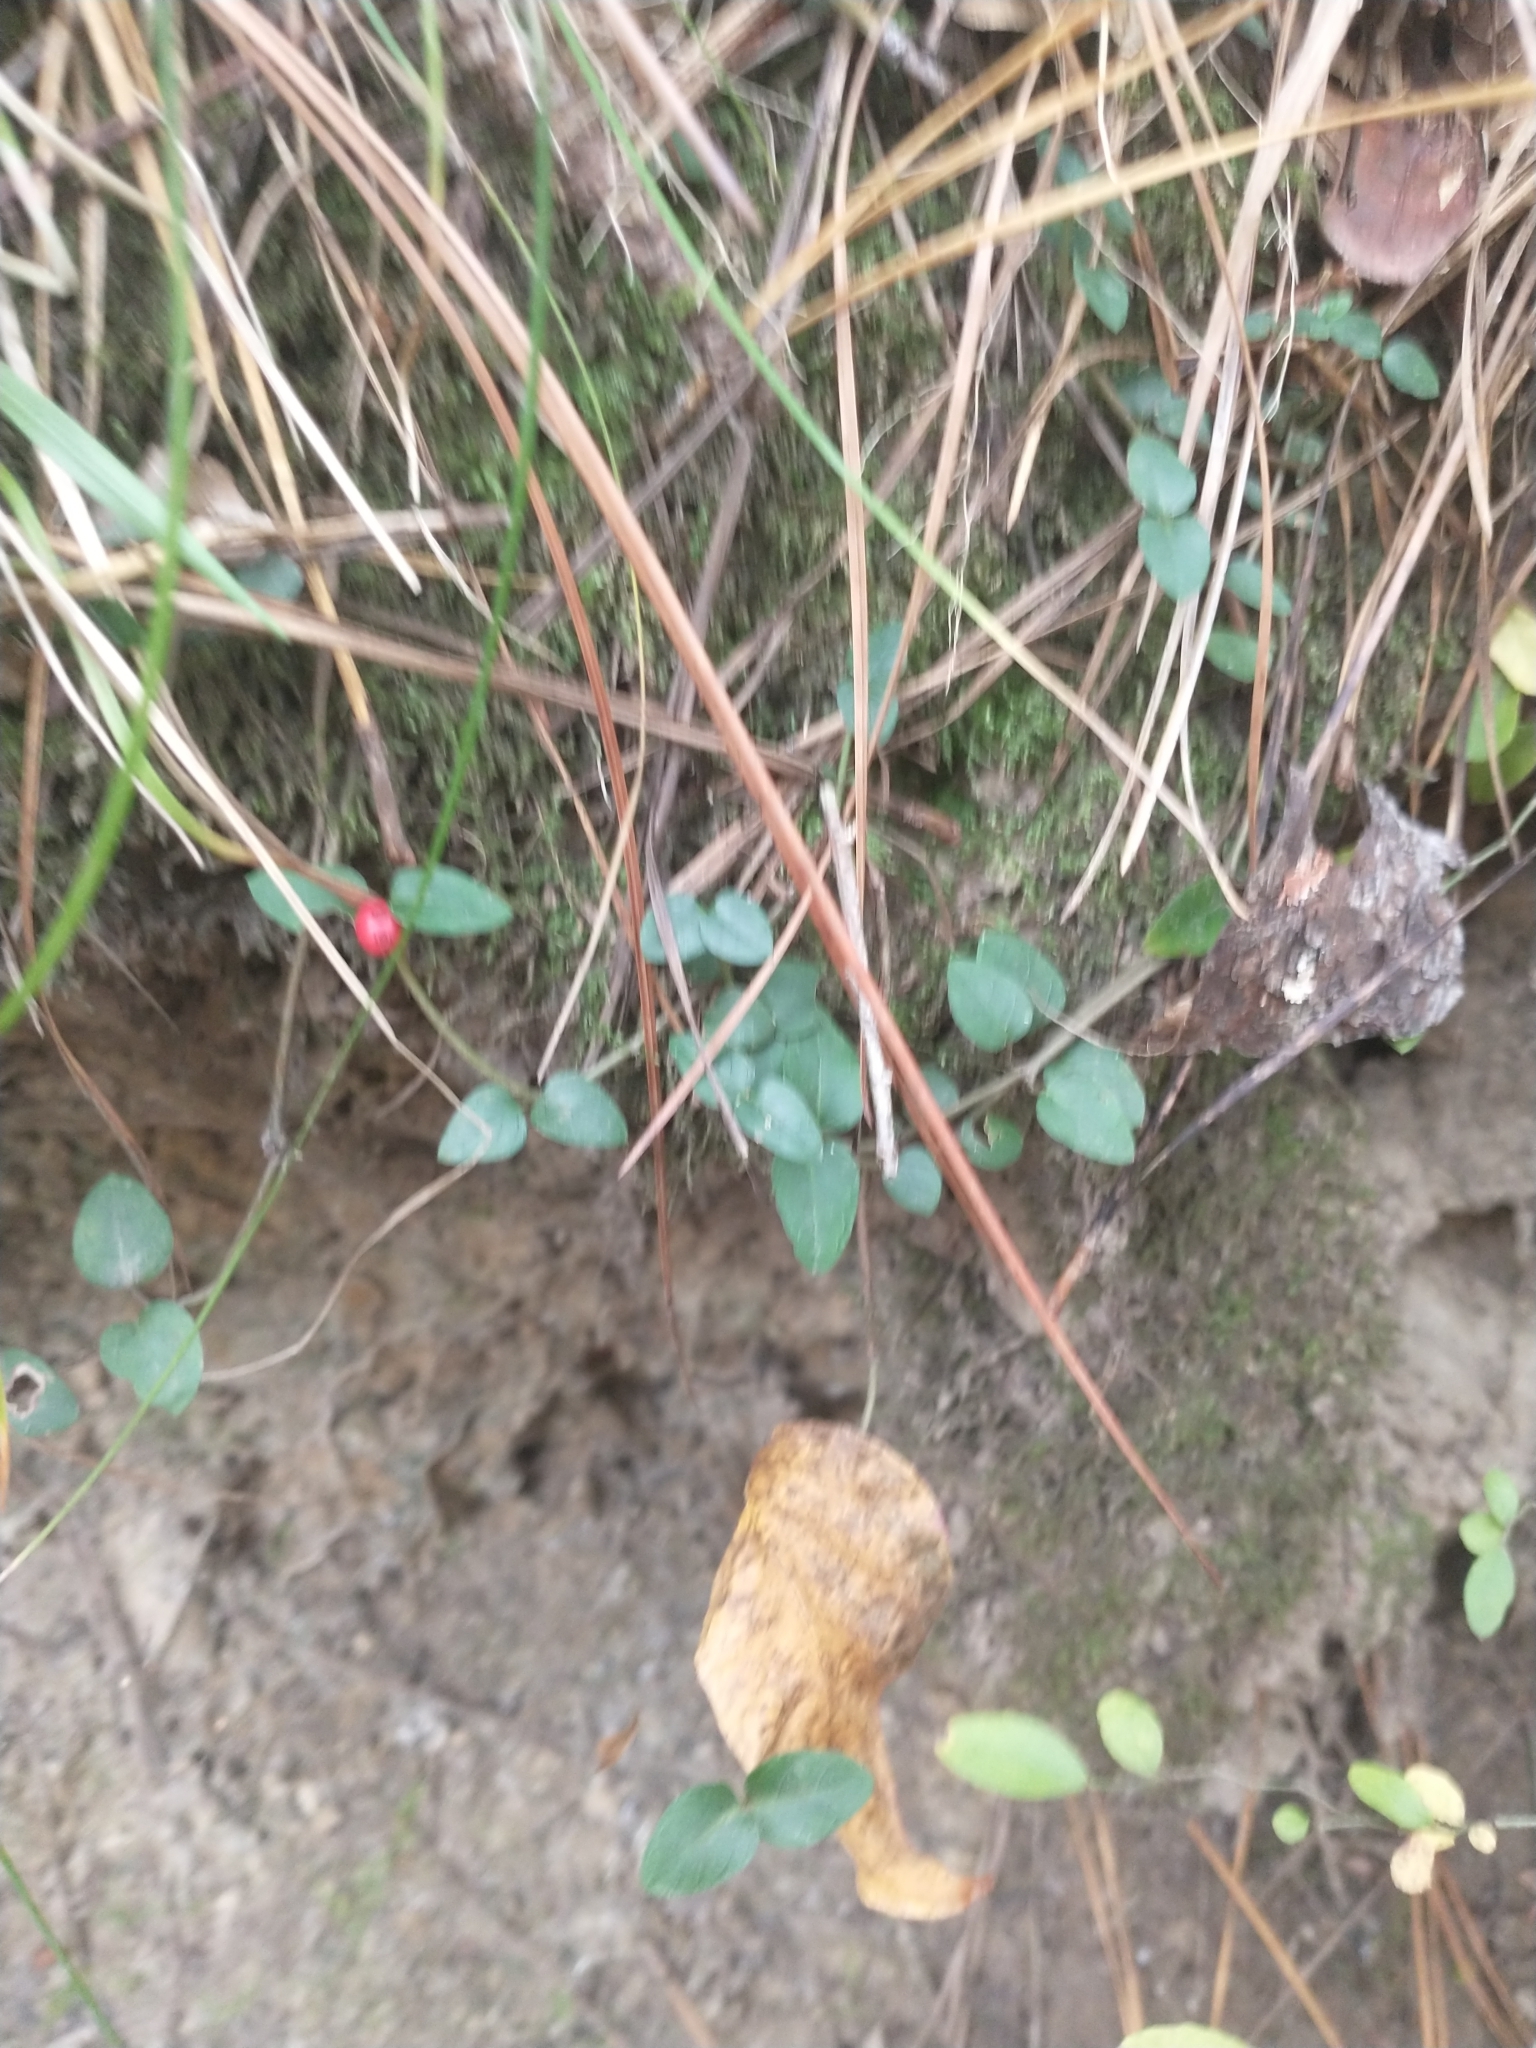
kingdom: Plantae
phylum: Tracheophyta
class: Magnoliopsida
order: Gentianales
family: Rubiaceae
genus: Mitchella
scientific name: Mitchella repens
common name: Partridge-berry
